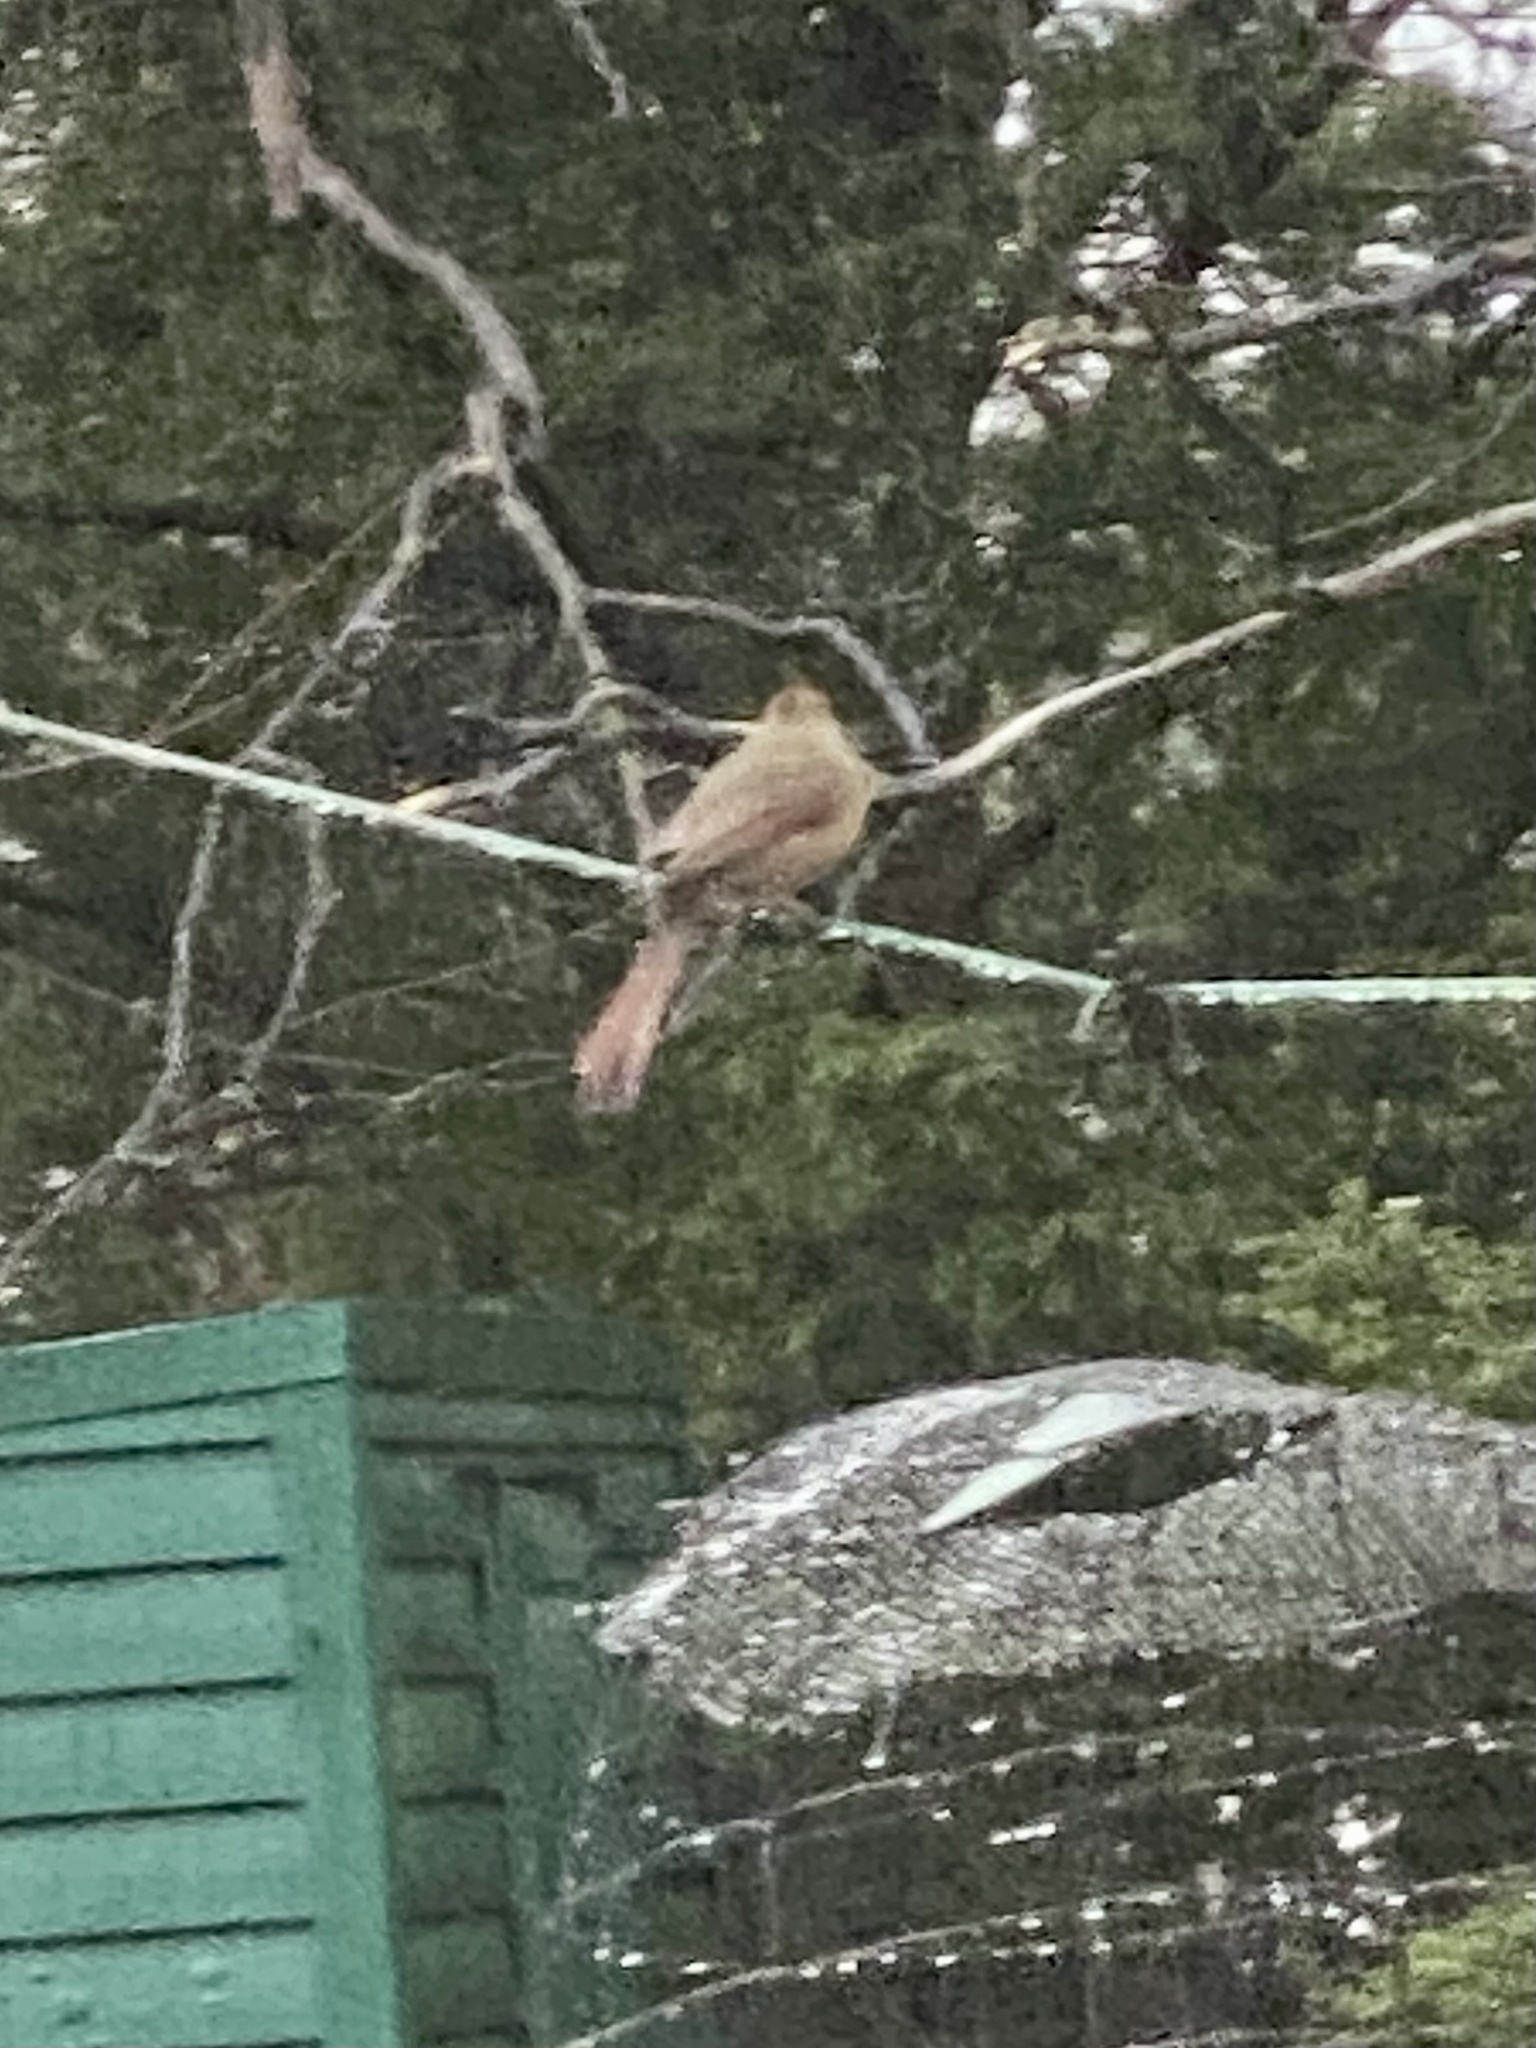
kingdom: Animalia
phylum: Chordata
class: Aves
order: Passeriformes
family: Cardinalidae
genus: Cardinalis
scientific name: Cardinalis cardinalis
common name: Northern cardinal
